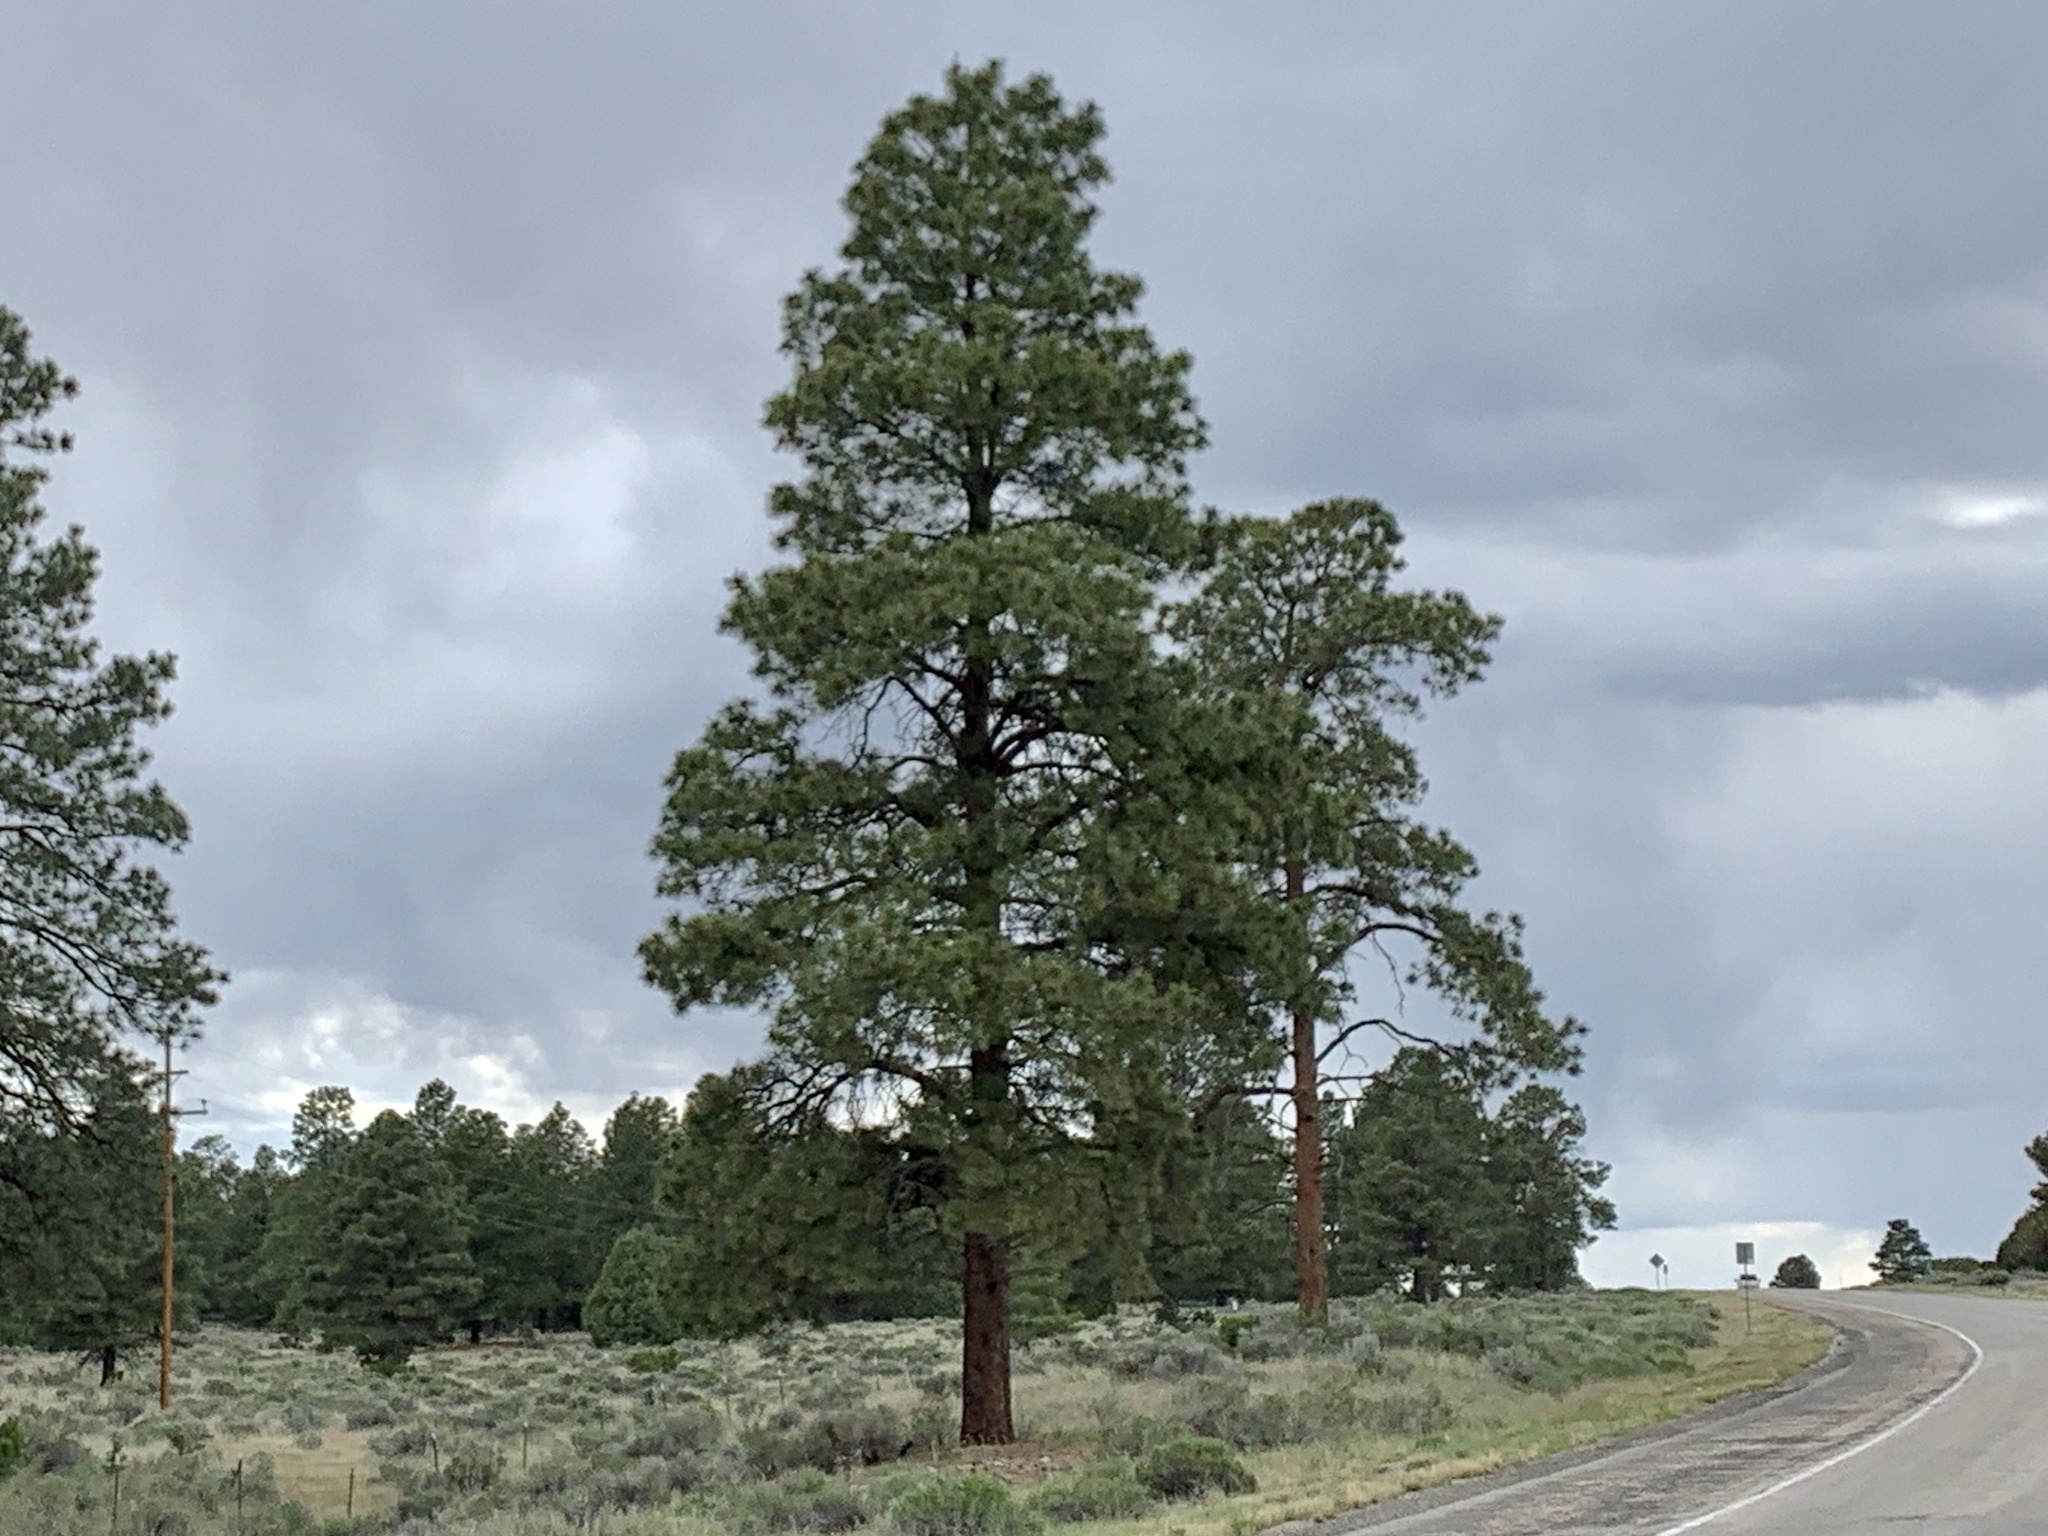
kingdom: Plantae
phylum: Tracheophyta
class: Pinopsida
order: Pinales
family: Pinaceae
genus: Pinus
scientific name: Pinus ponderosa
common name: Western yellow-pine
